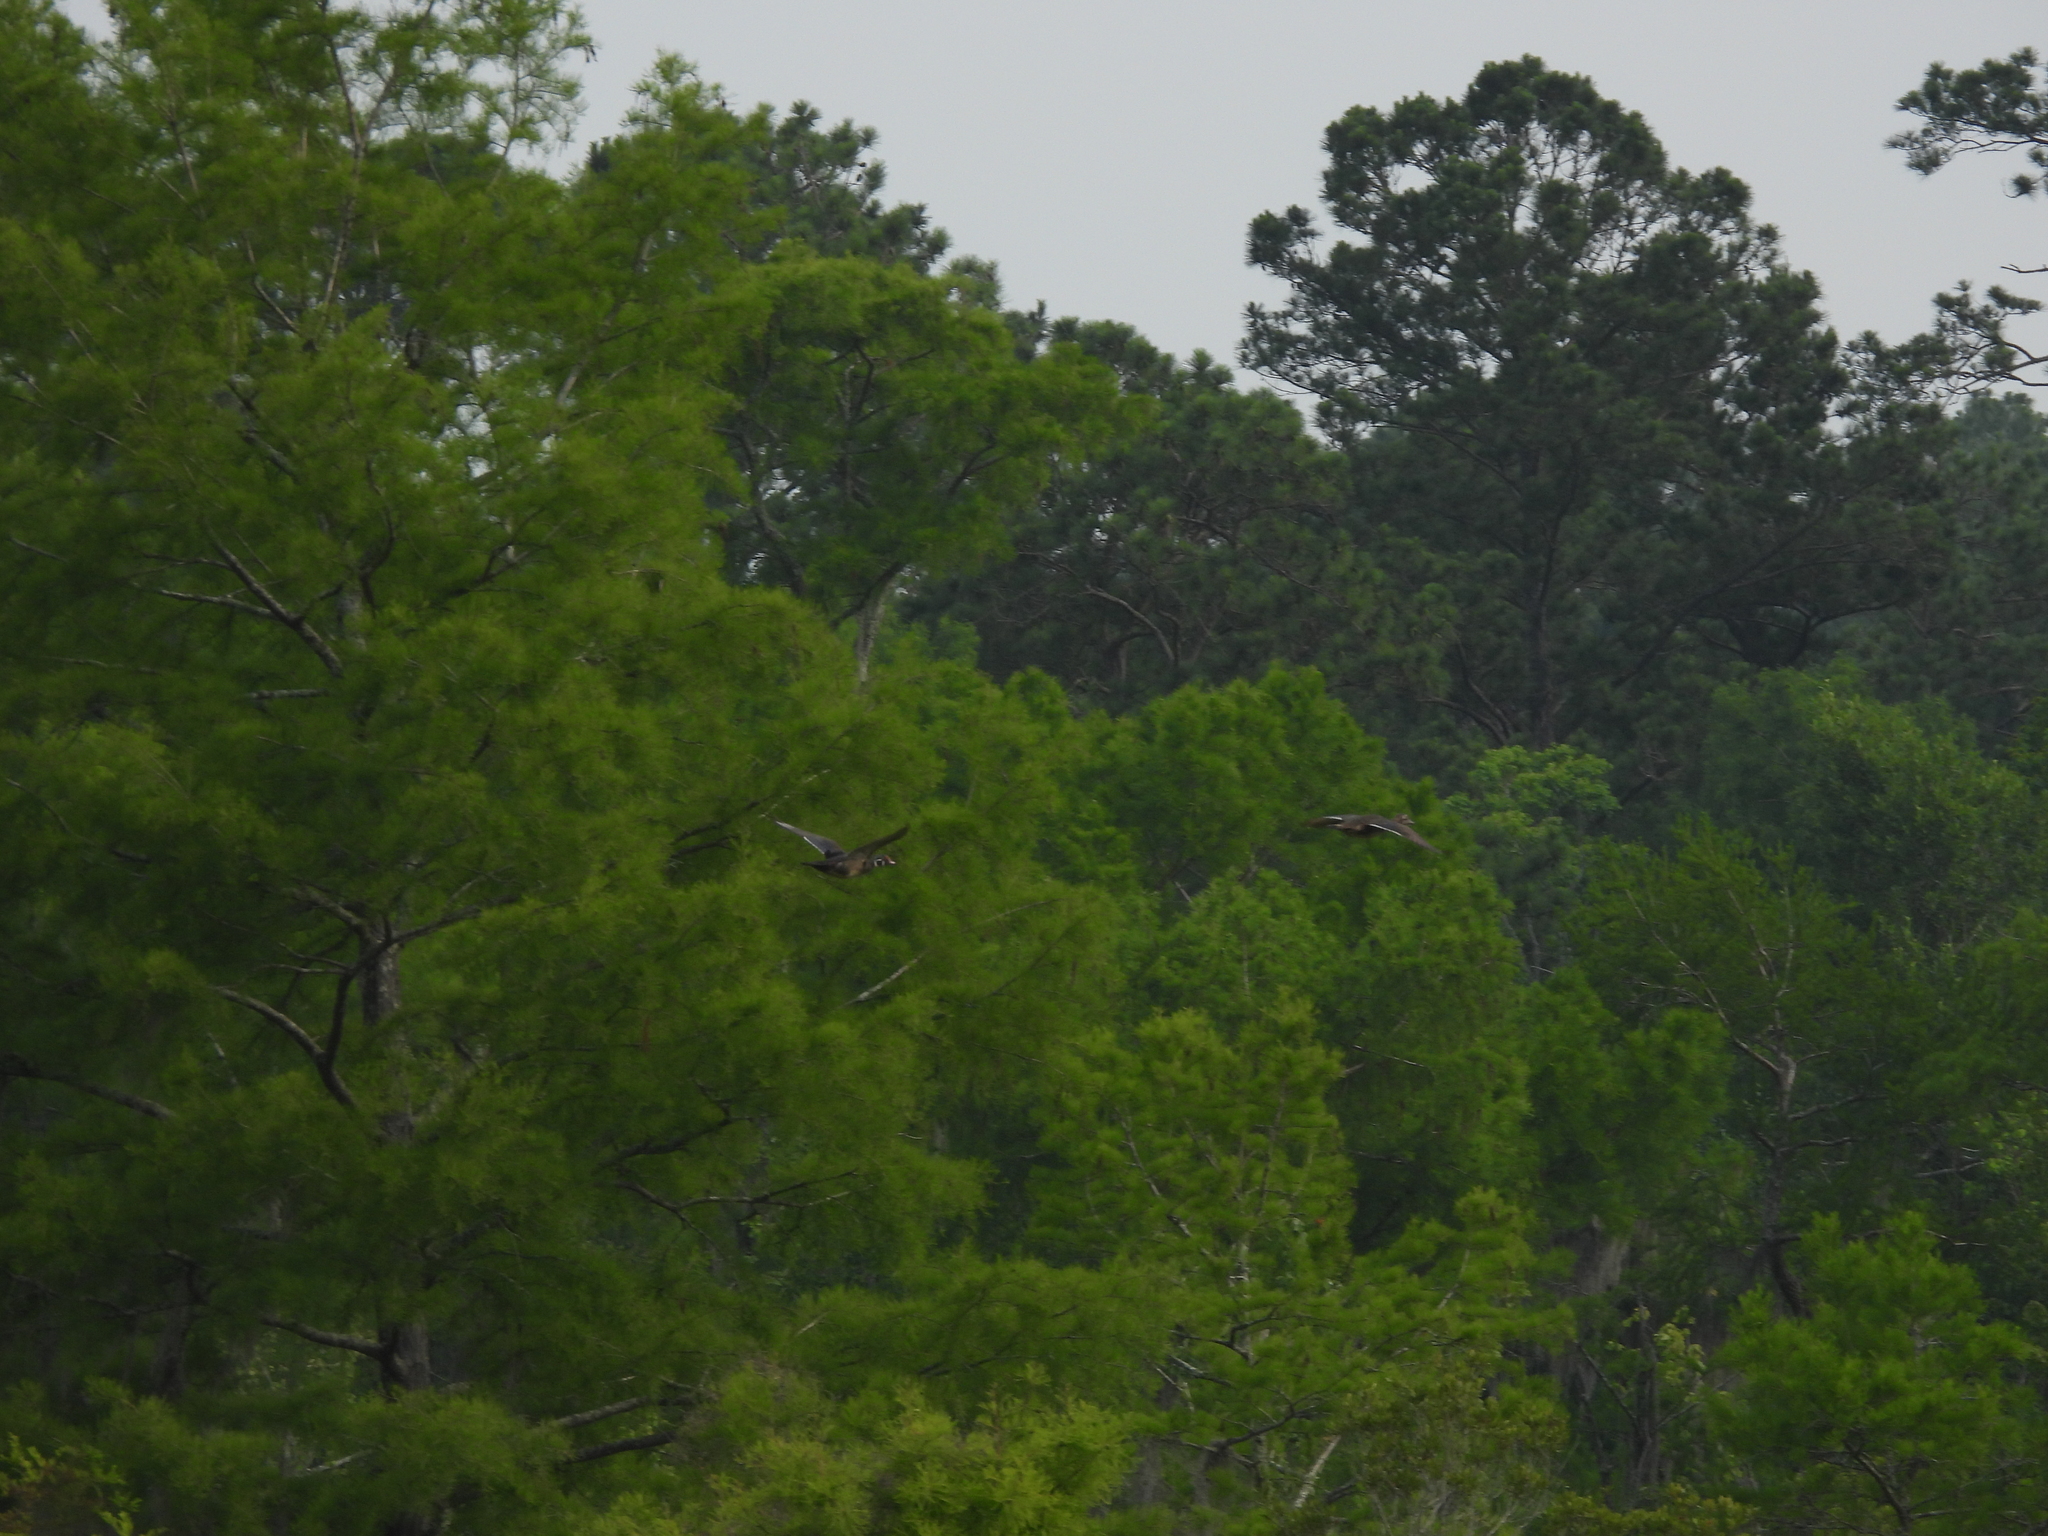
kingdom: Animalia
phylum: Chordata
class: Aves
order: Anseriformes
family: Anatidae
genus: Aix
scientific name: Aix sponsa
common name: Wood duck
